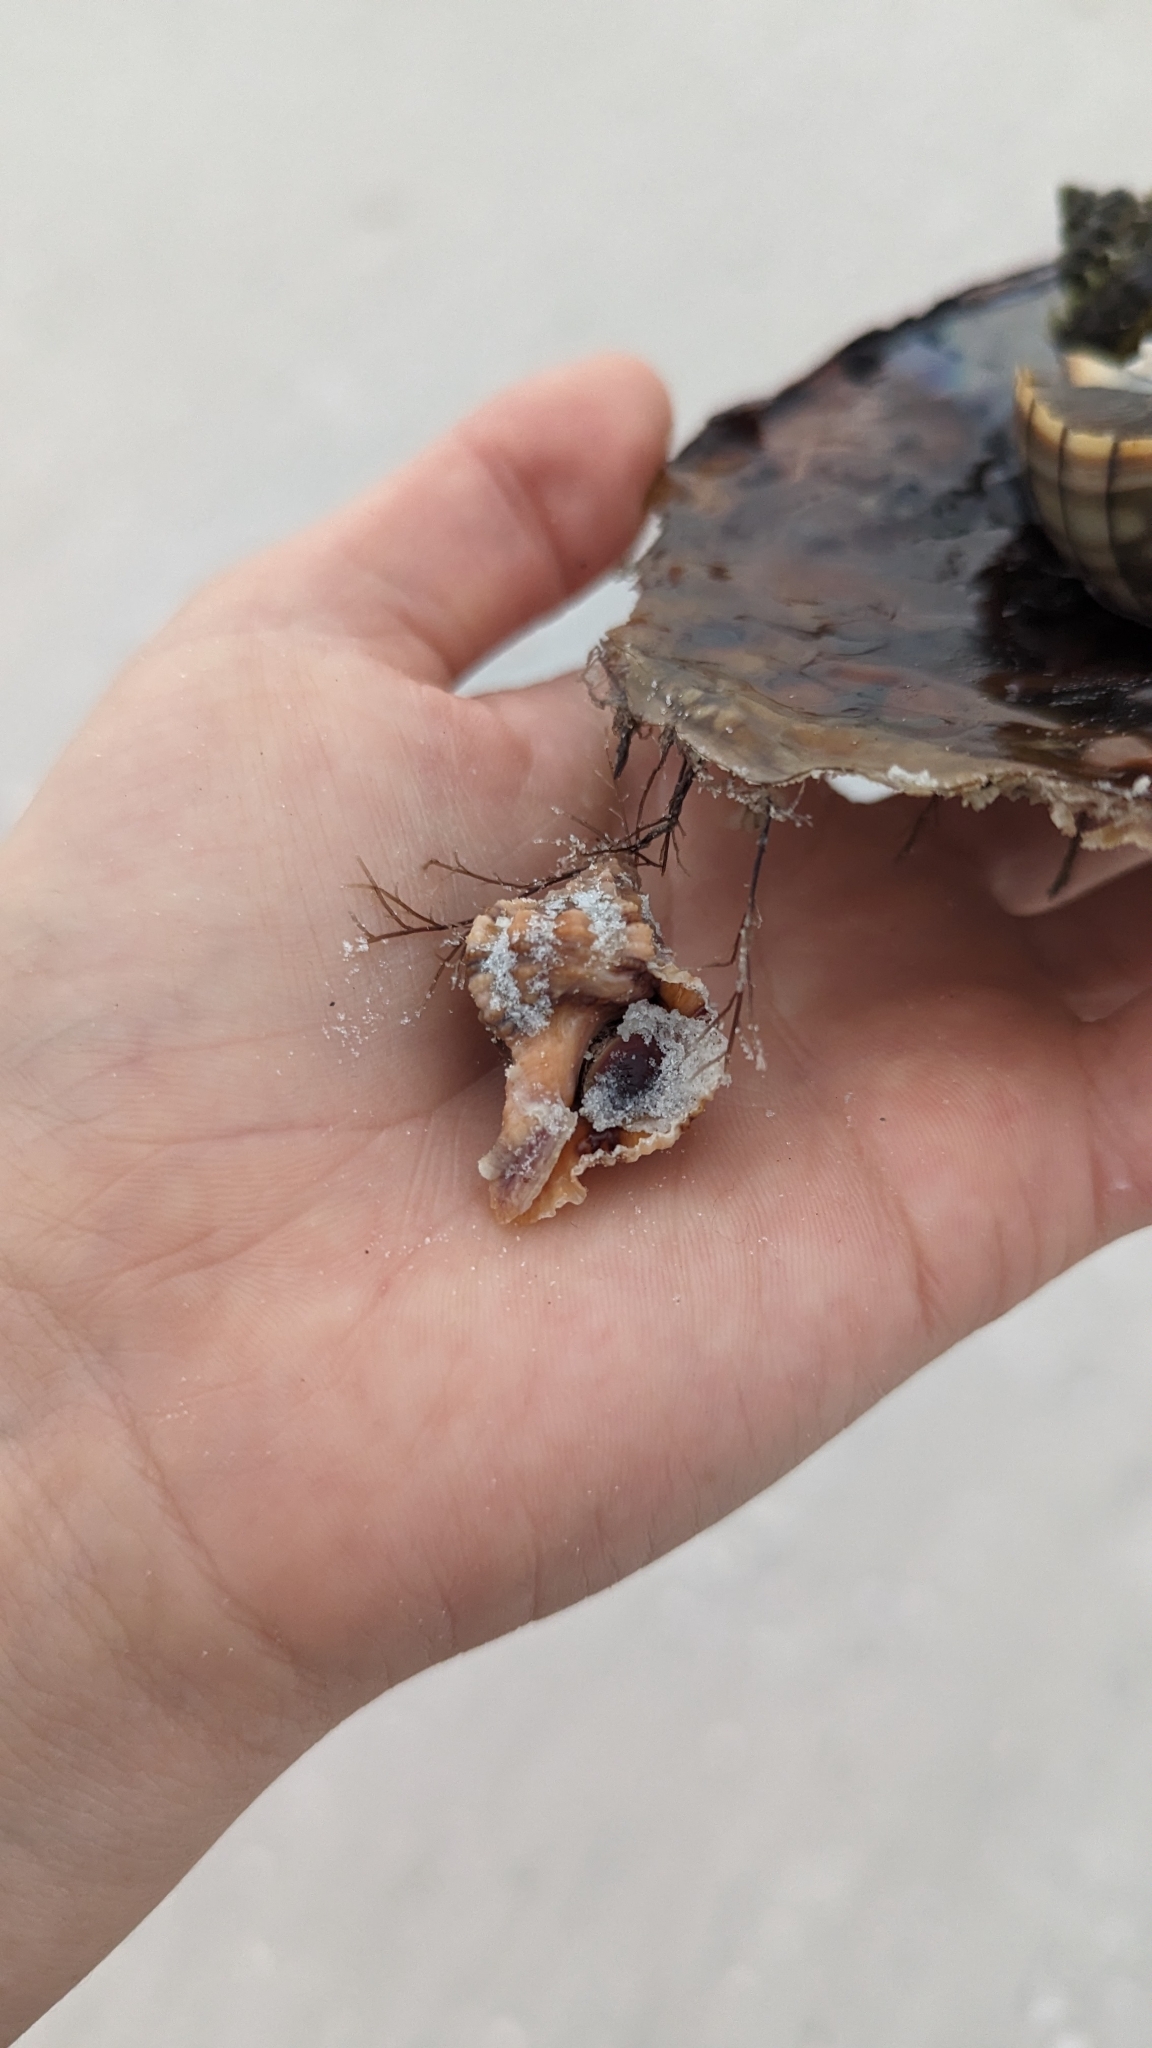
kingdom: Animalia
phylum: Mollusca
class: Gastropoda
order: Neogastropoda
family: Muricidae
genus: Phyllonotus
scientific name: Phyllonotus pomum
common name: Apple murex
